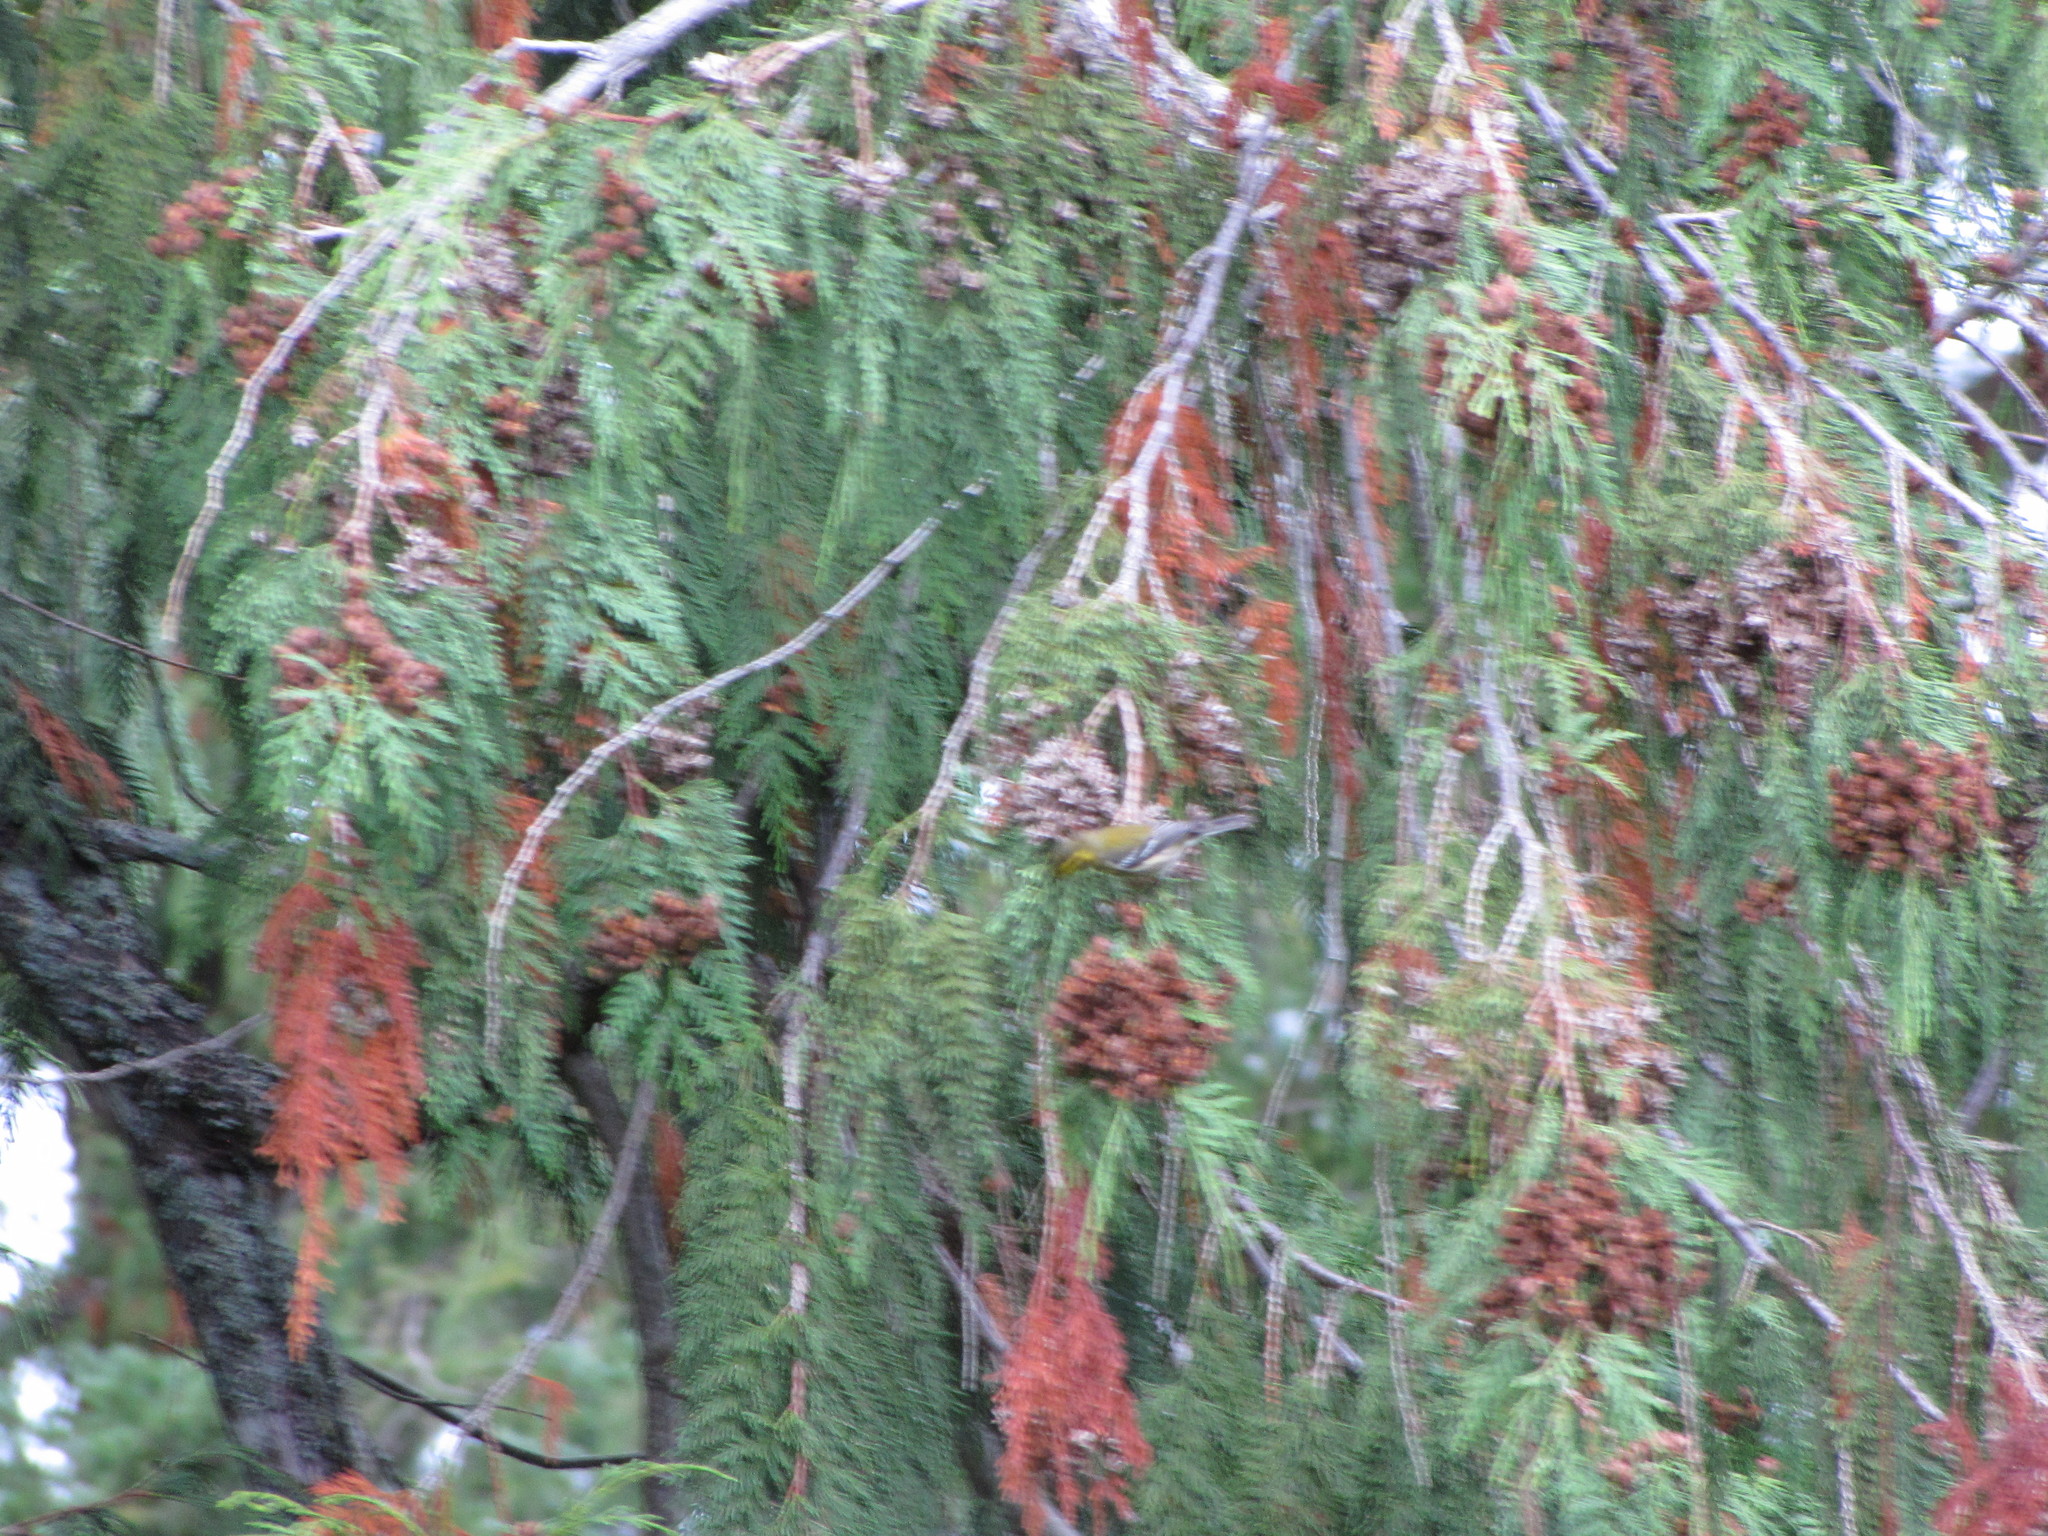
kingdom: Animalia
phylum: Chordata
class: Aves
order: Passeriformes
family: Parulidae
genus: Setophaga
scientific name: Setophaga townsendi
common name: Townsend's warbler
